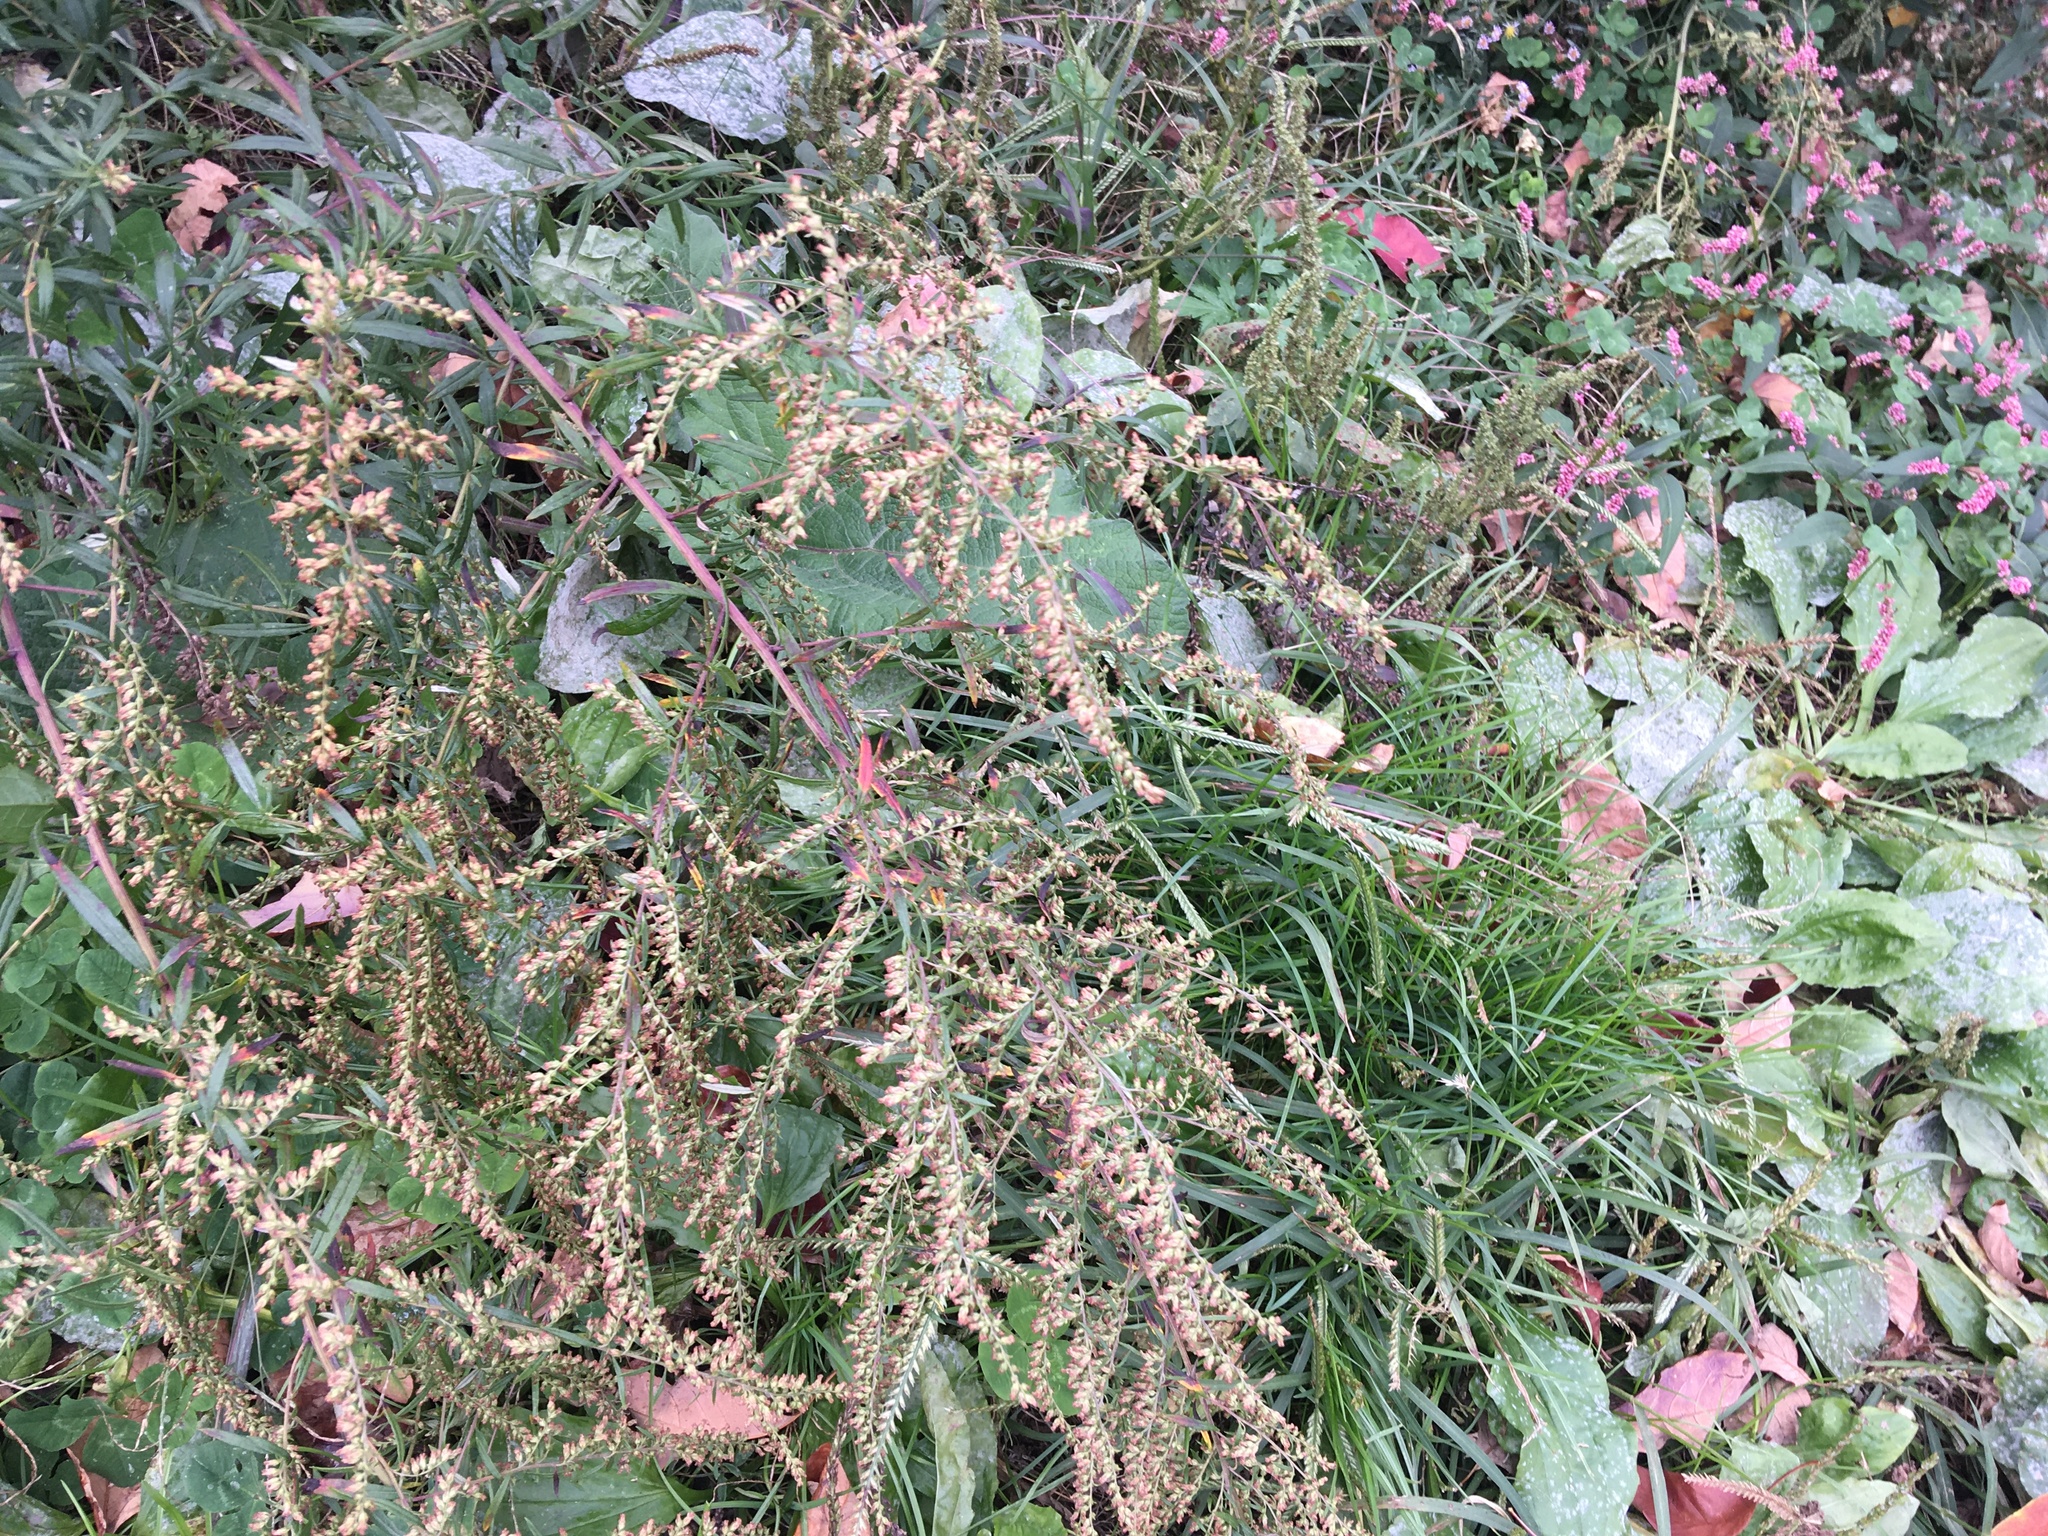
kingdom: Plantae
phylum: Tracheophyta
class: Magnoliopsida
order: Asterales
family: Asteraceae
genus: Artemisia
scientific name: Artemisia vulgaris
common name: Mugwort
